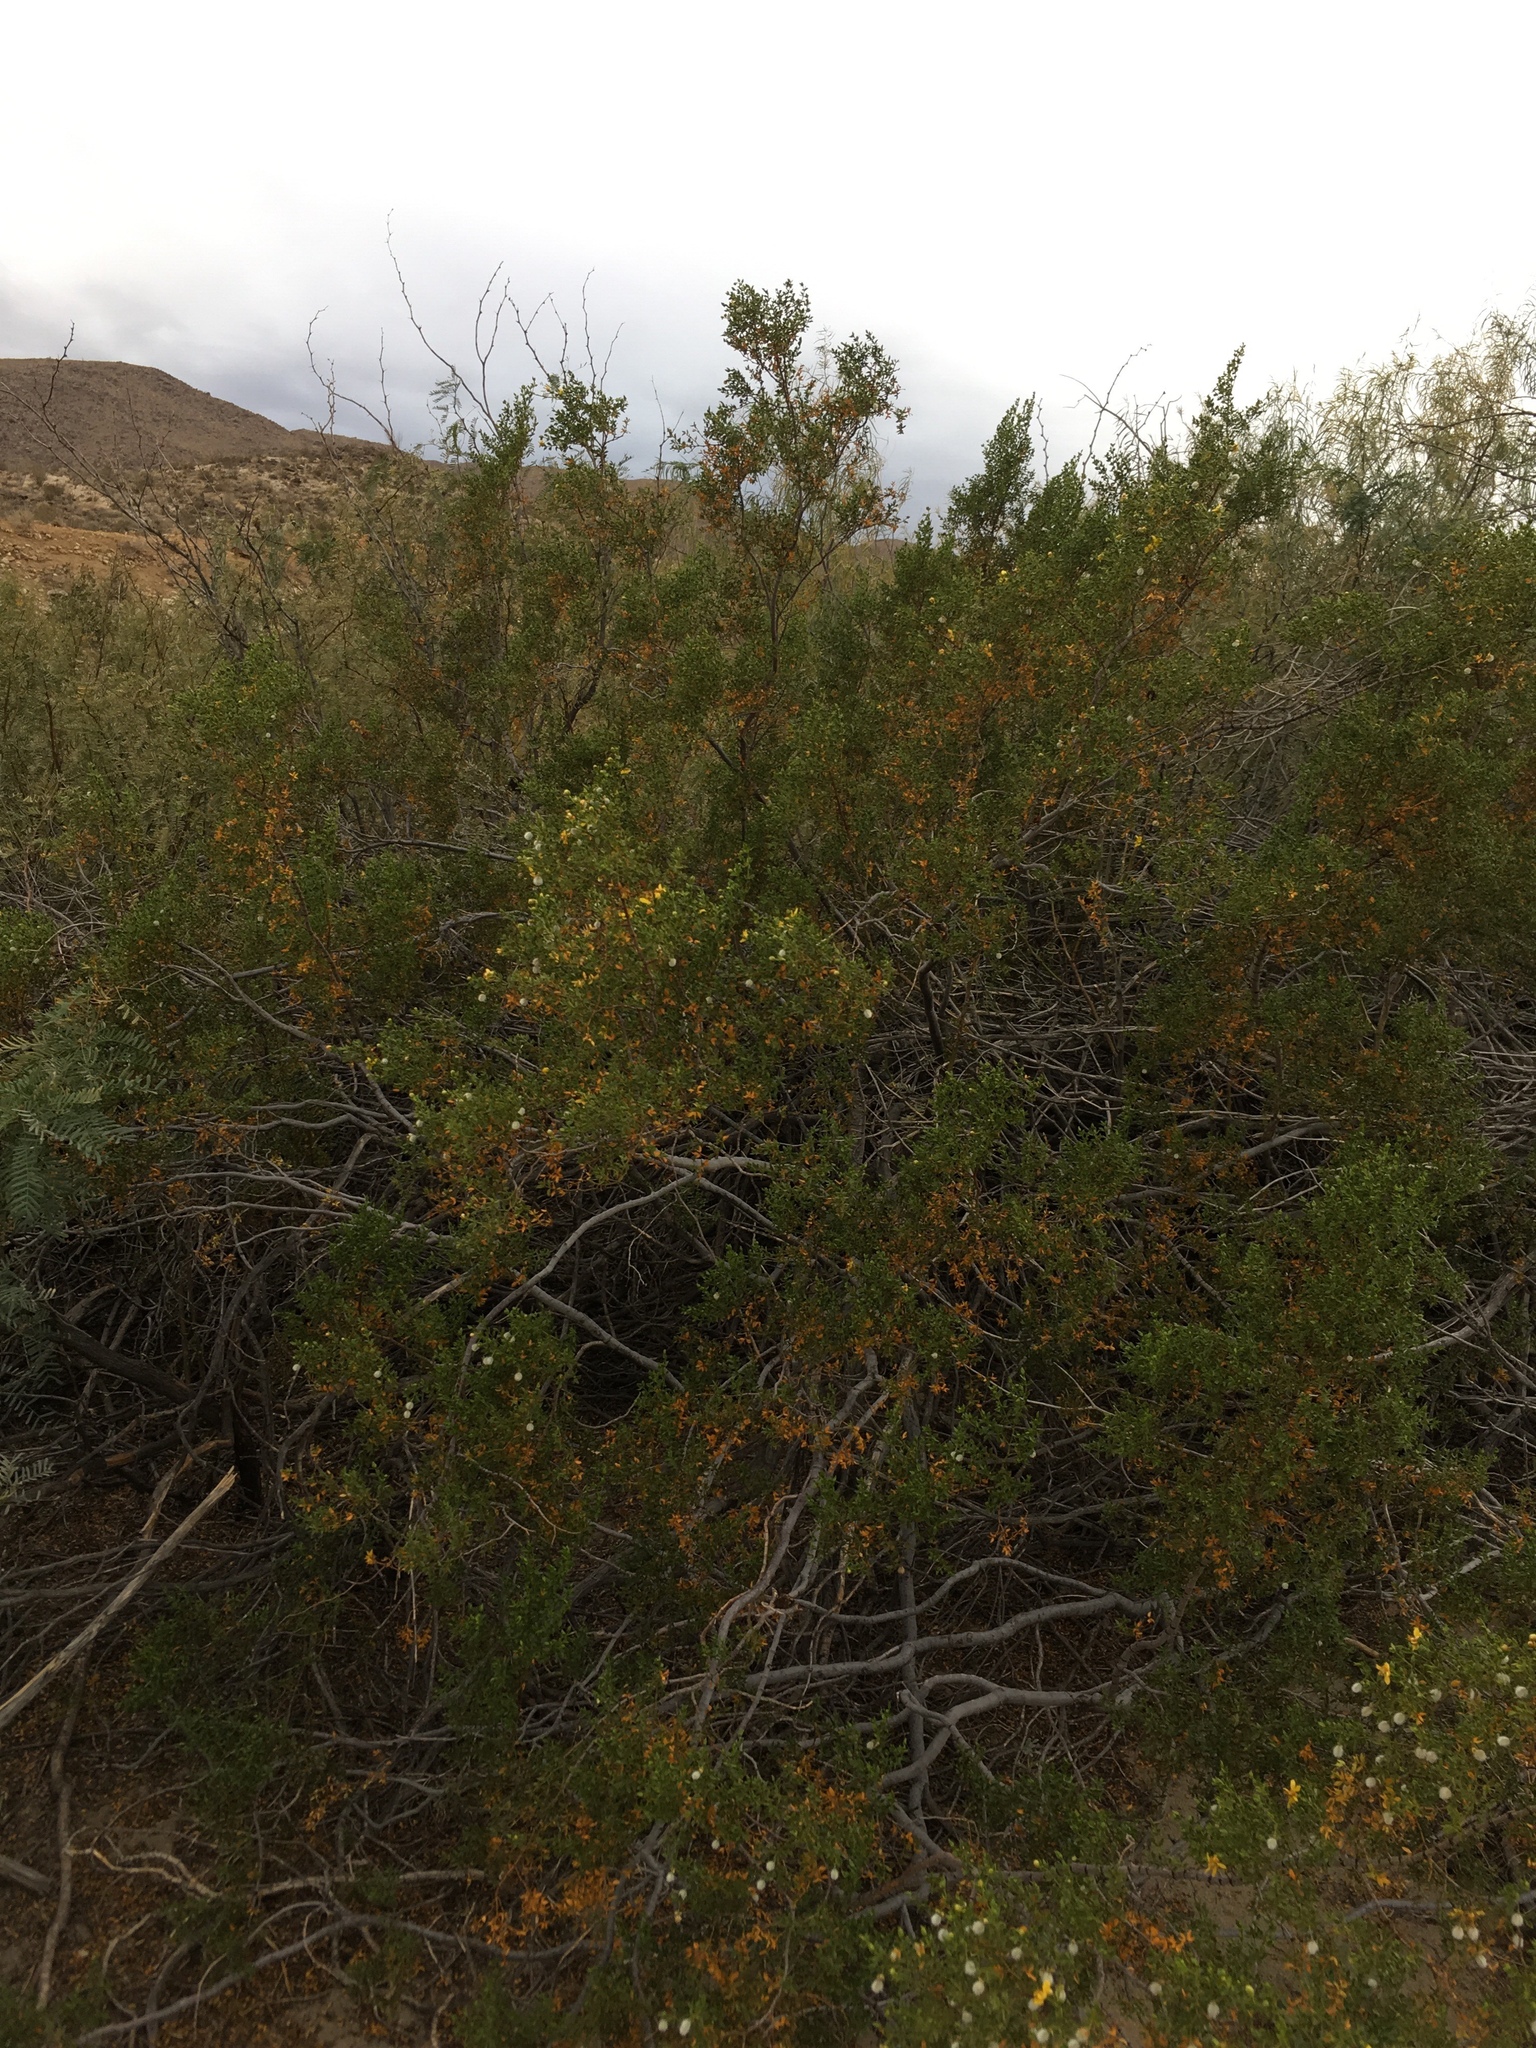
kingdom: Animalia
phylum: Arthropoda
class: Insecta
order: Diptera
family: Cecidomyiidae
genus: Asphondylia
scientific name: Asphondylia auripila
